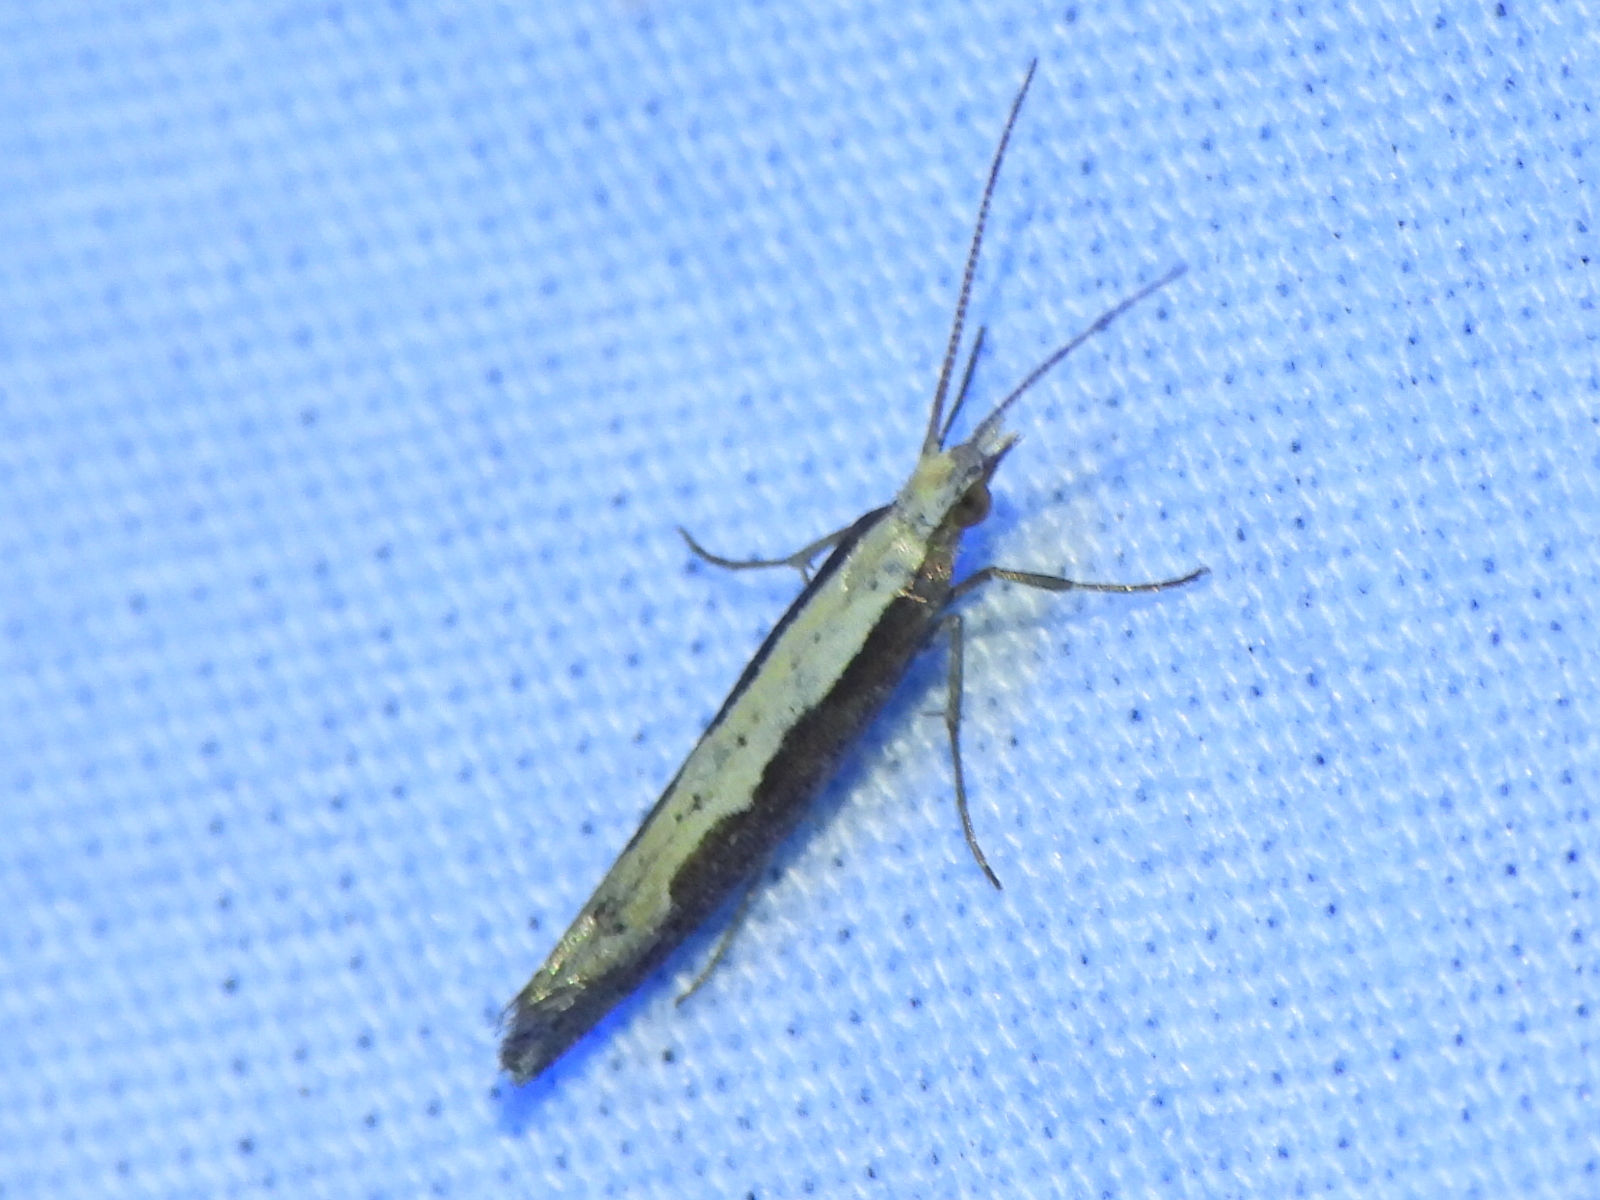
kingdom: Animalia
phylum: Arthropoda
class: Insecta
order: Lepidoptera
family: Plutellidae
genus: Plutella
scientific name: Plutella xylostella
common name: Diamond-back moth
